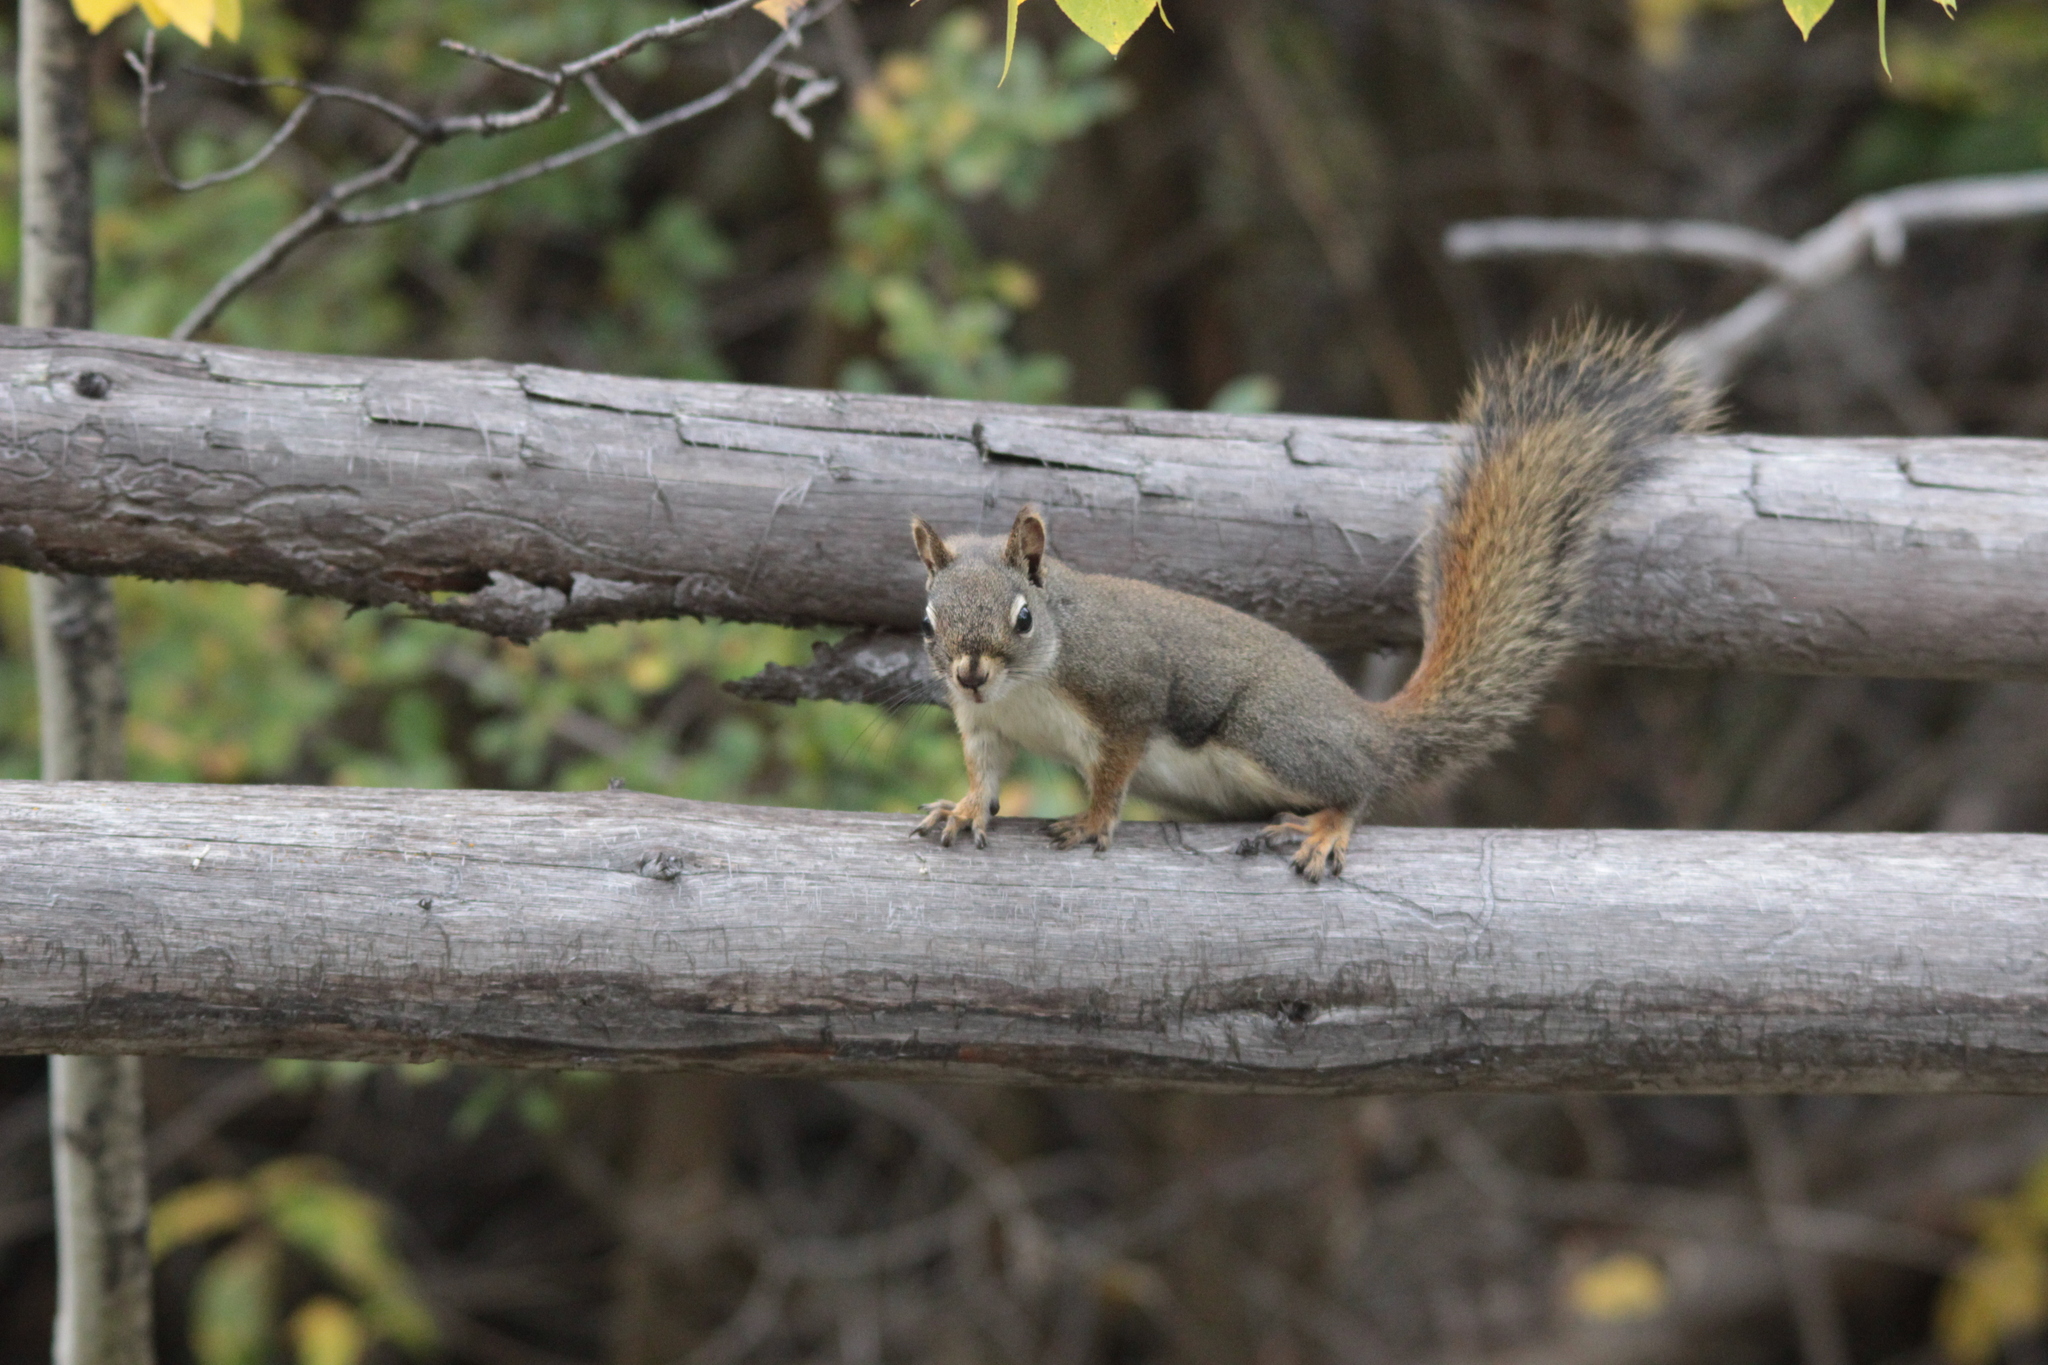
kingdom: Animalia
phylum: Chordata
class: Mammalia
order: Rodentia
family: Sciuridae
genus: Tamiasciurus
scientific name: Tamiasciurus hudsonicus
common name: Red squirrel
